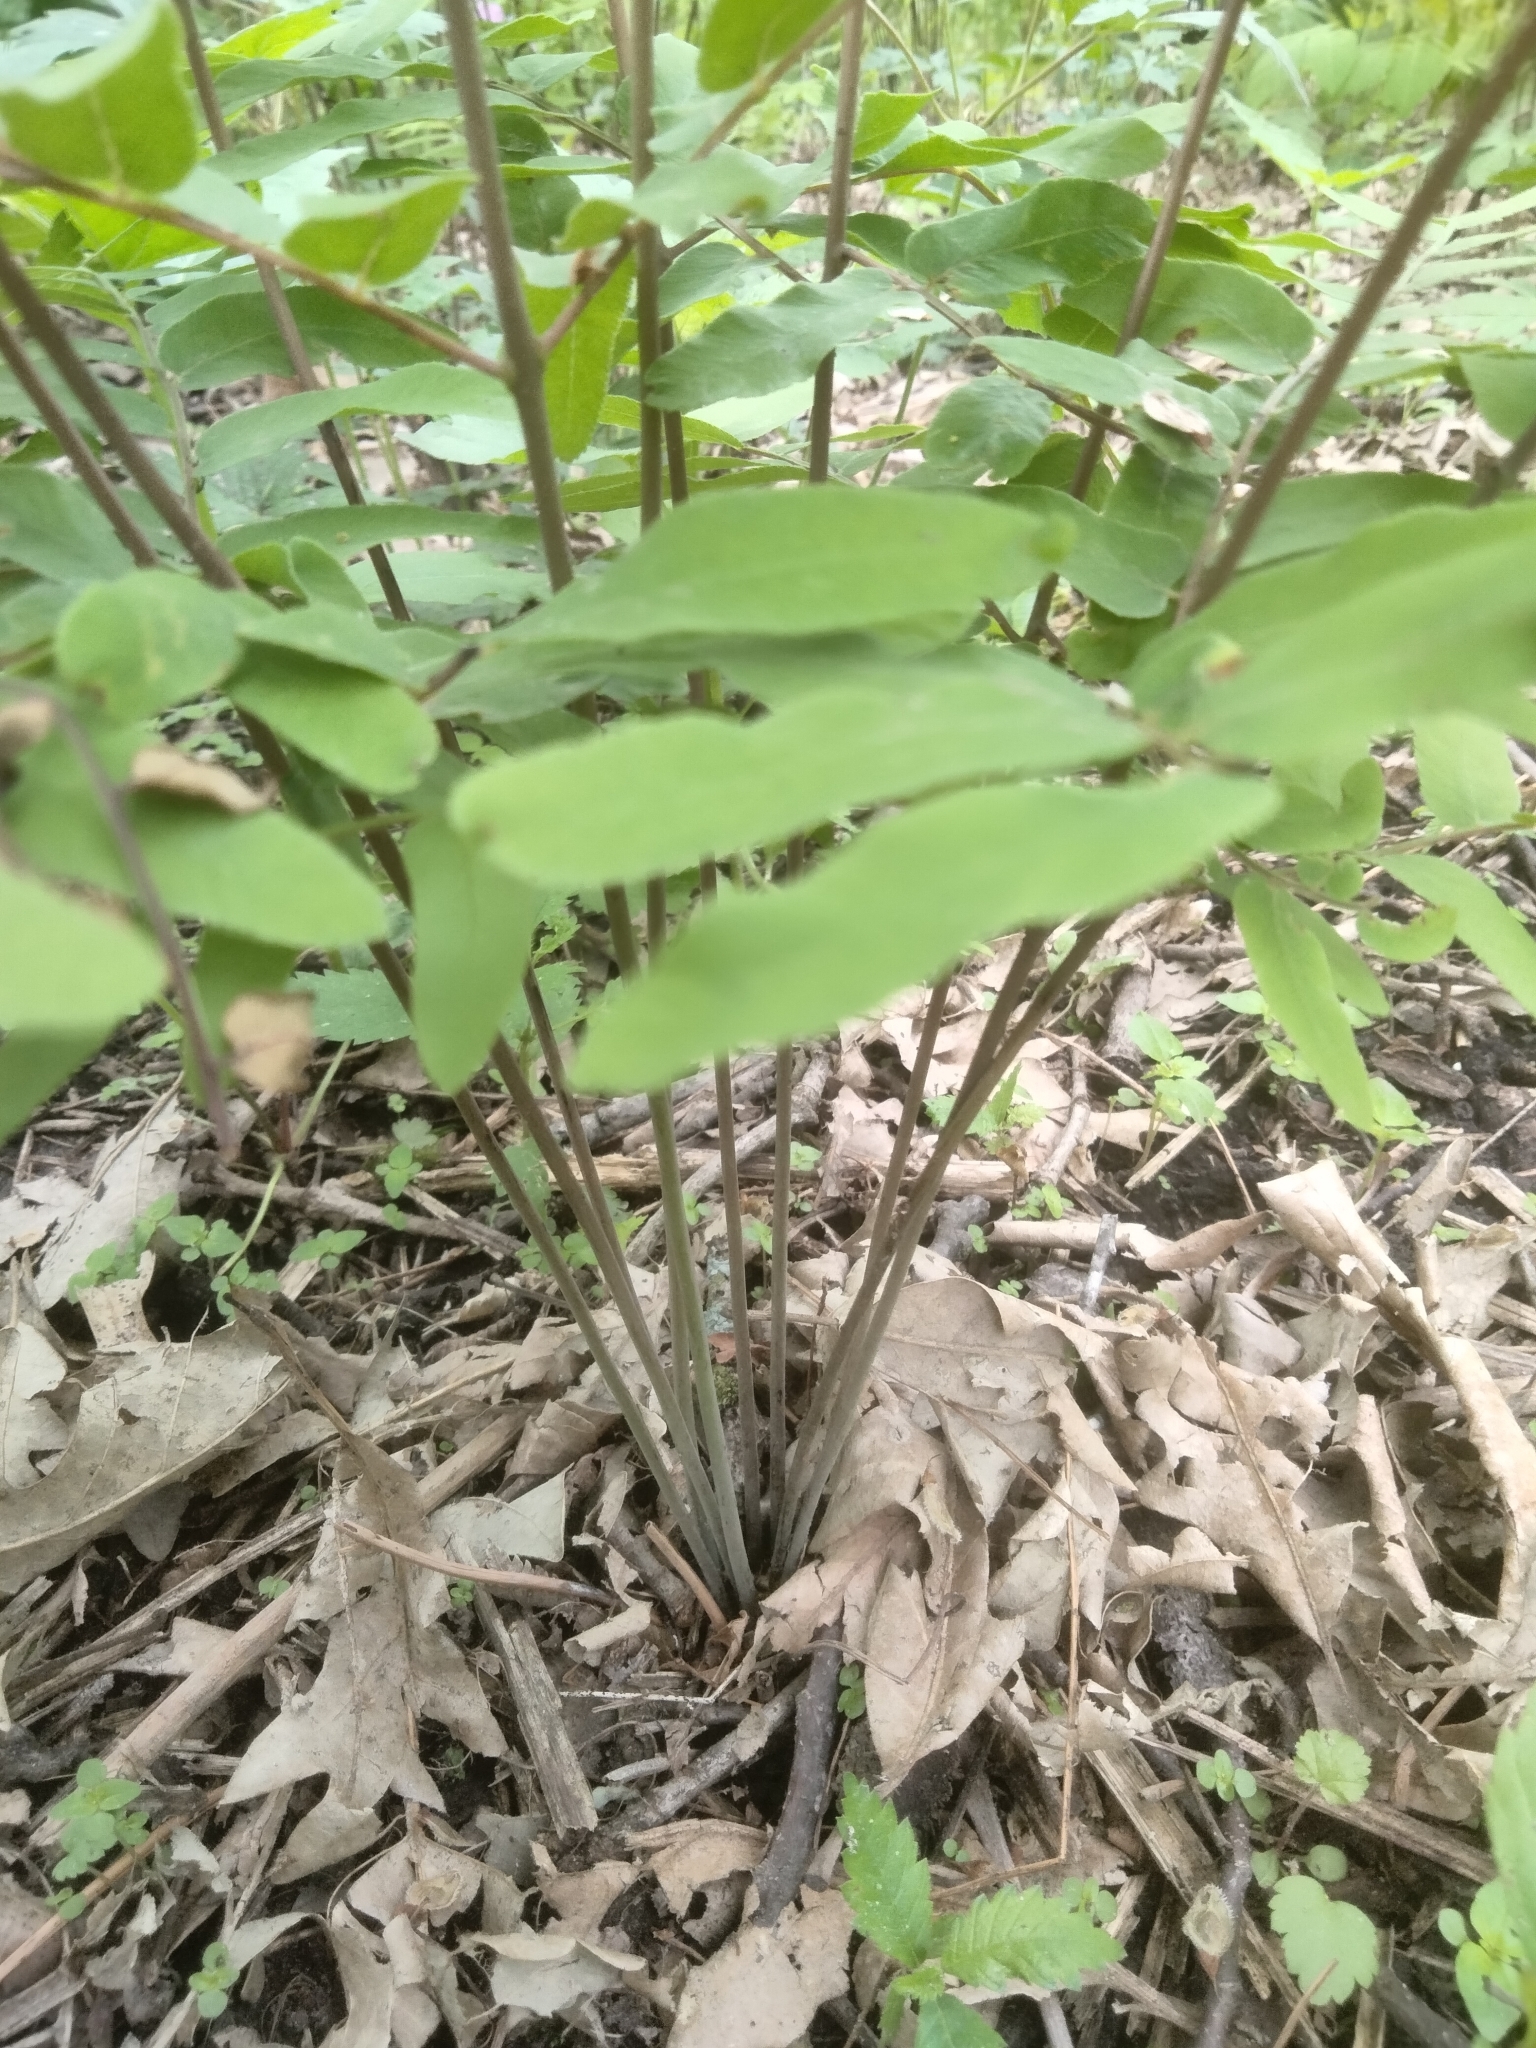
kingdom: Plantae
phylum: Tracheophyta
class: Polypodiopsida
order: Osmundales
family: Osmundaceae
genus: Osmunda
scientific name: Osmunda spectabilis
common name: American royal fern
